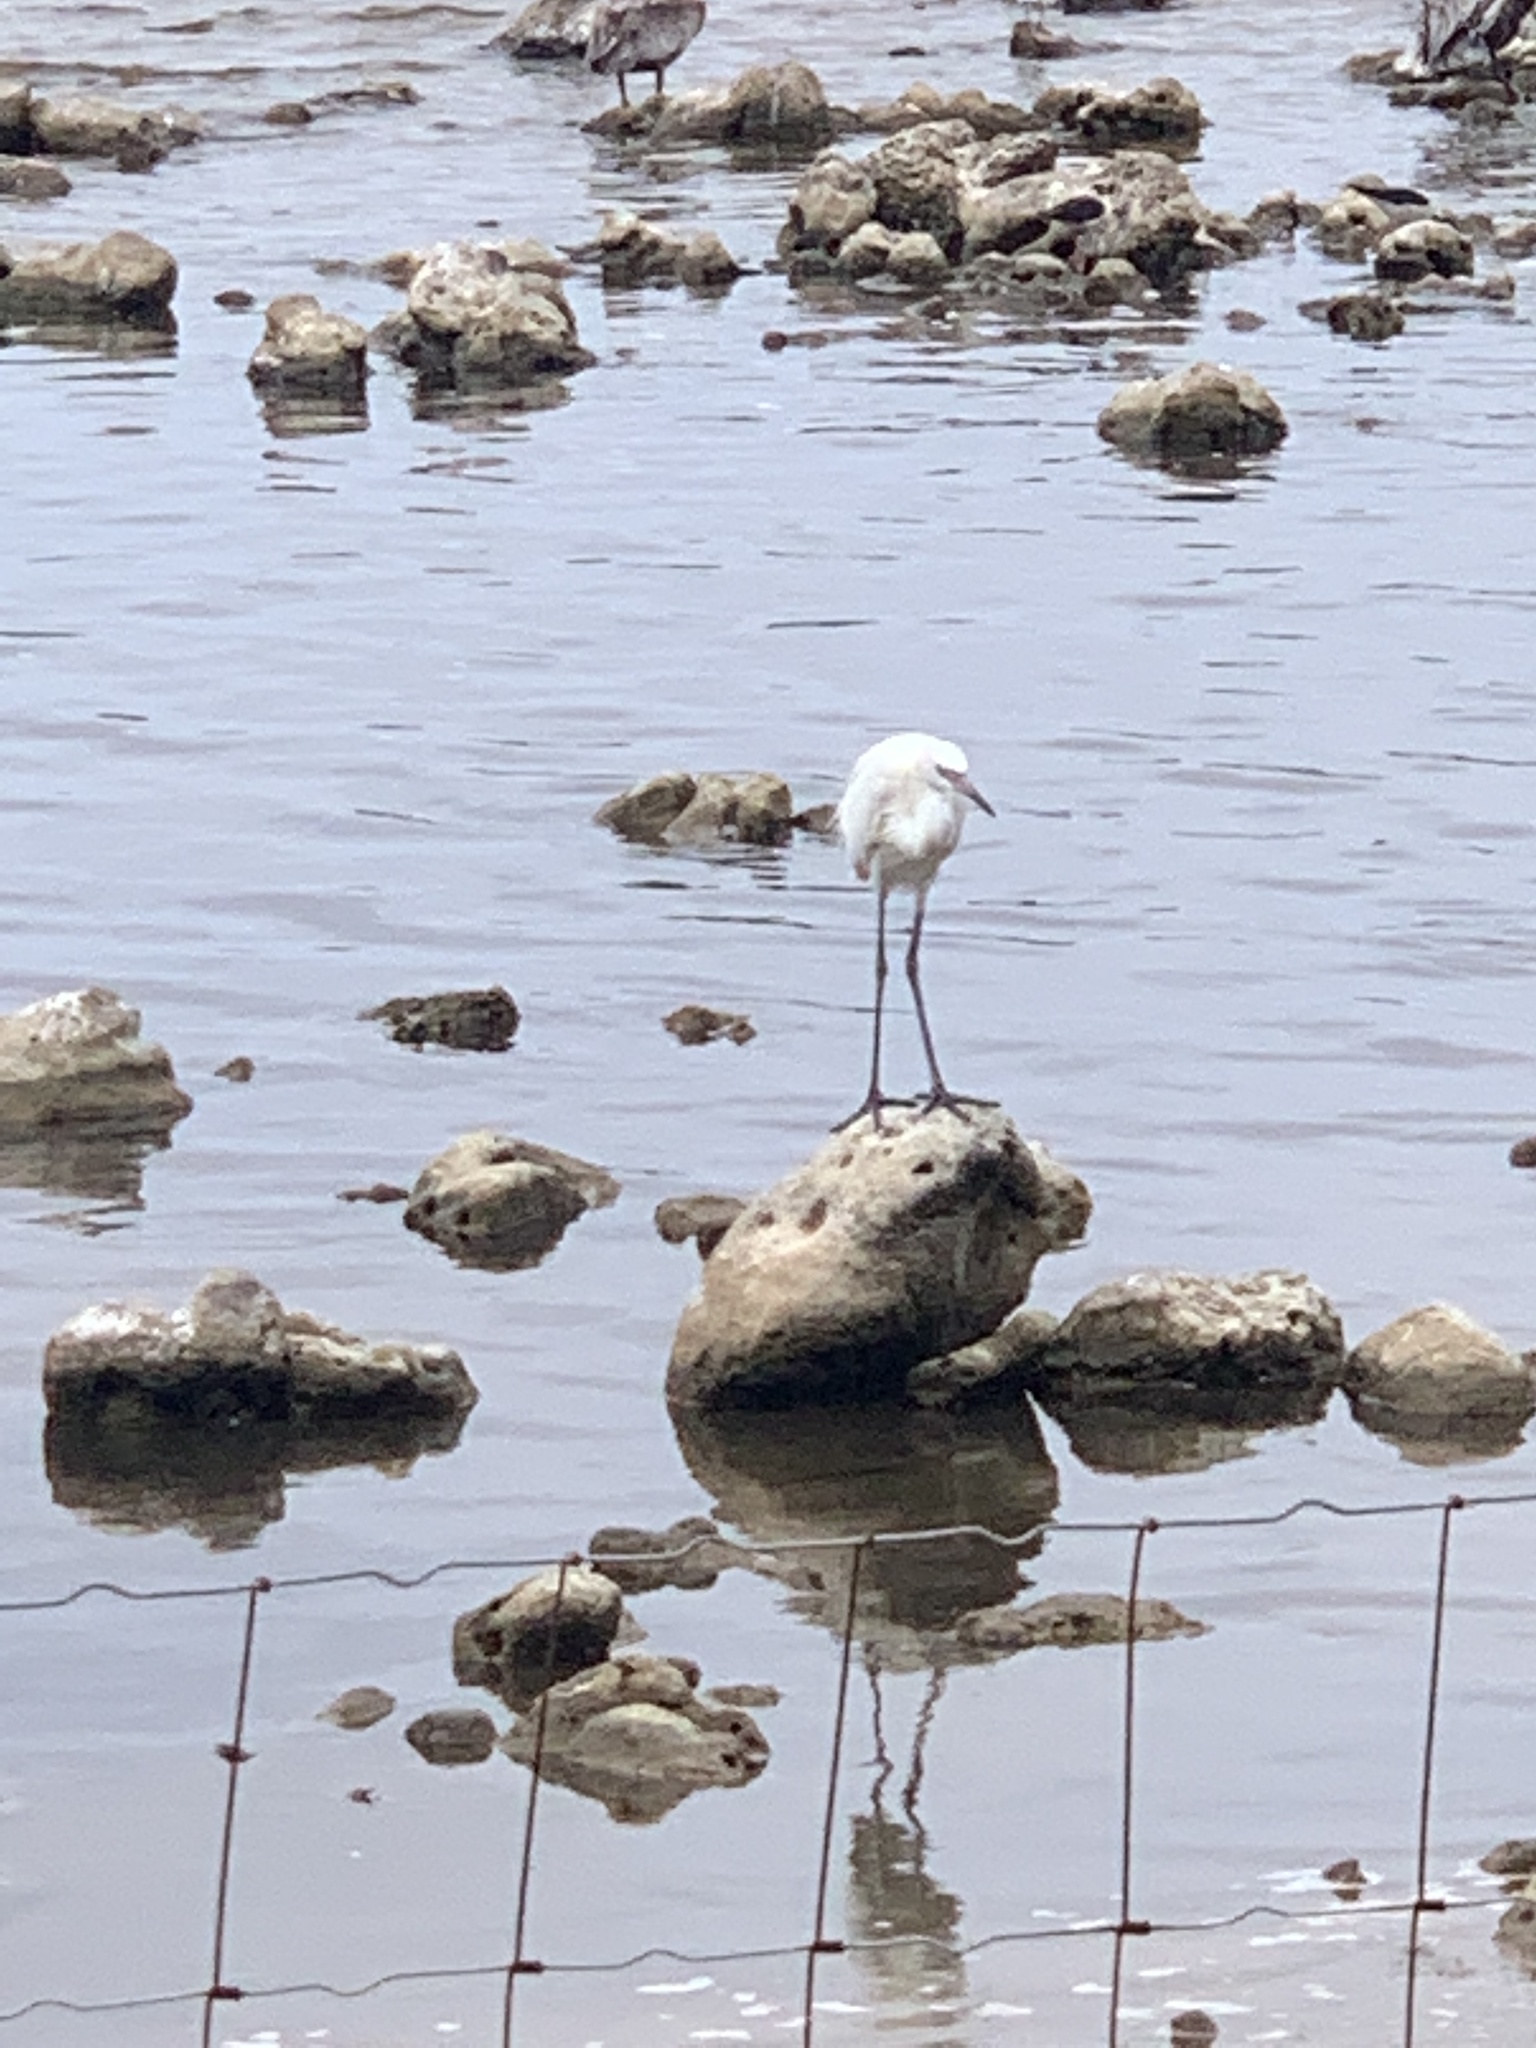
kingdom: Animalia
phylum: Chordata
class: Aves
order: Pelecaniformes
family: Ardeidae
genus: Egretta
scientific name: Egretta caerulea
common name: Little blue heron
